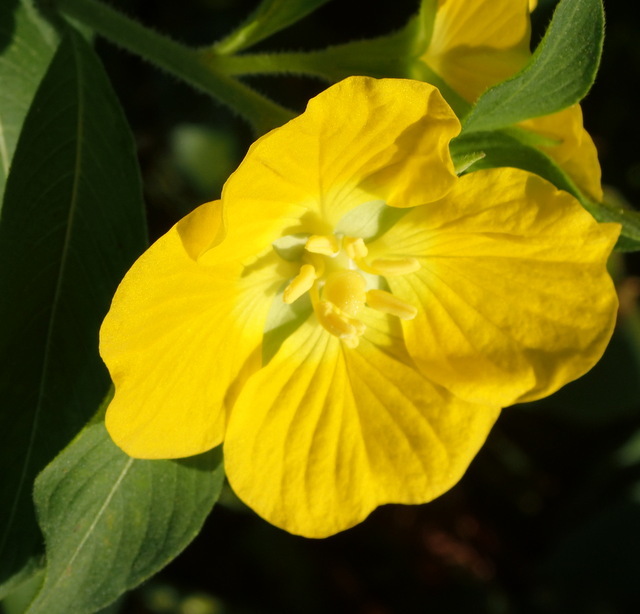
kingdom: Plantae
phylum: Tracheophyta
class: Magnoliopsida
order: Myrtales
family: Onagraceae
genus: Ludwigia
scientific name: Ludwigia peruviana
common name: Peruvian primrose-willow
